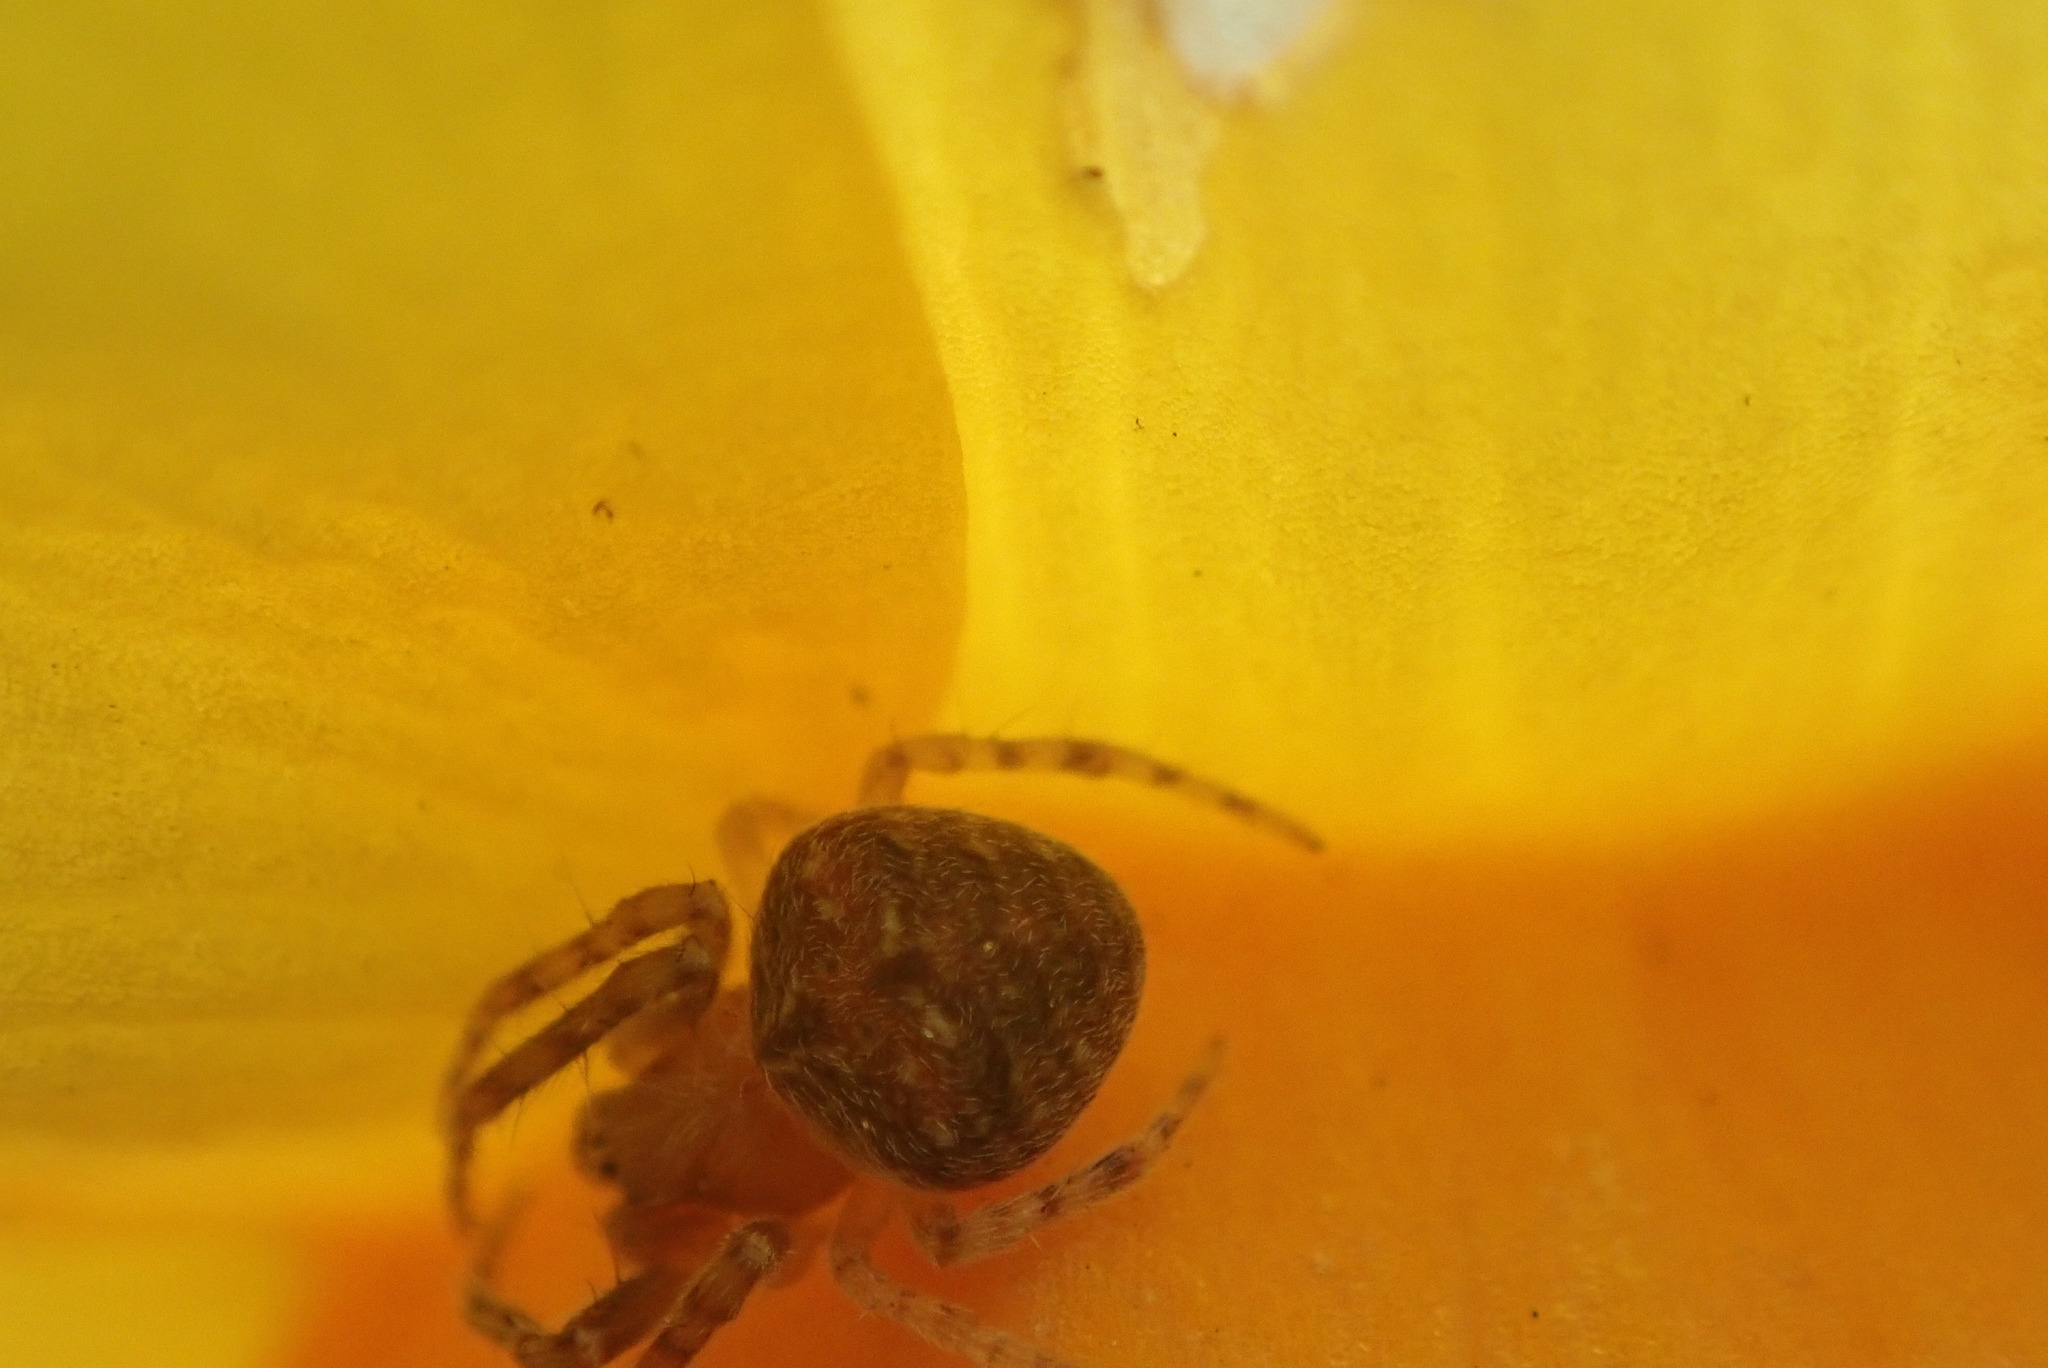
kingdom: Animalia
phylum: Arthropoda
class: Arachnida
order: Araneae
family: Araneidae
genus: Agalenatea
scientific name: Agalenatea redii
